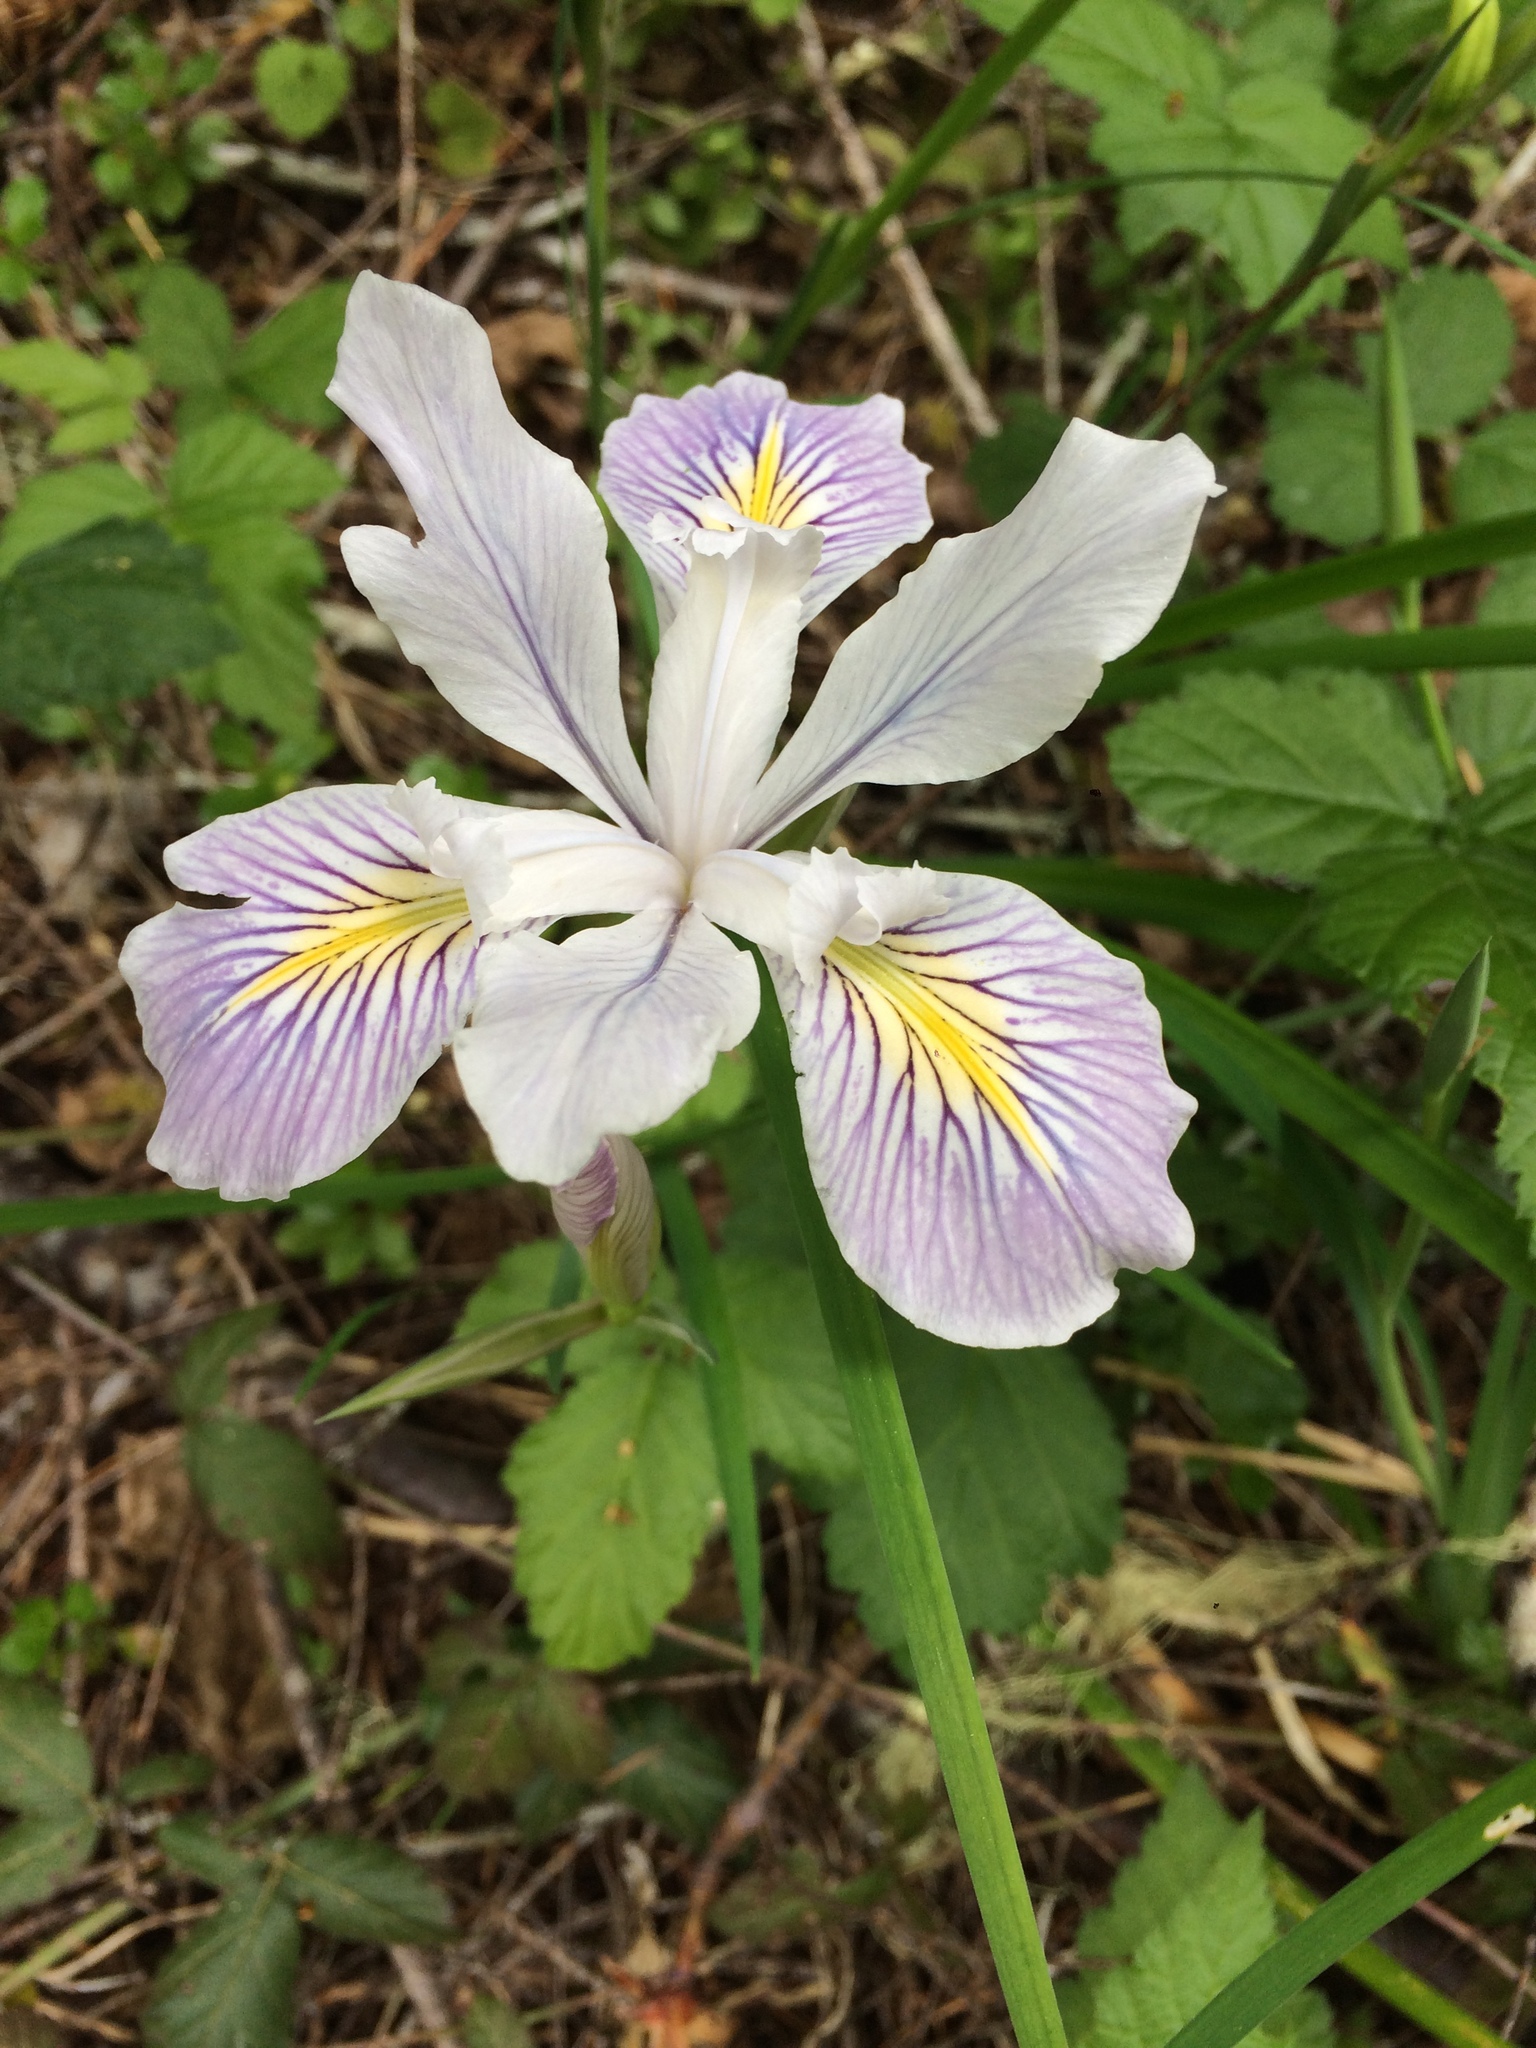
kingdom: Plantae
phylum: Tracheophyta
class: Liliopsida
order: Asparagales
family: Iridaceae
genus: Iris
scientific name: Iris tenax
